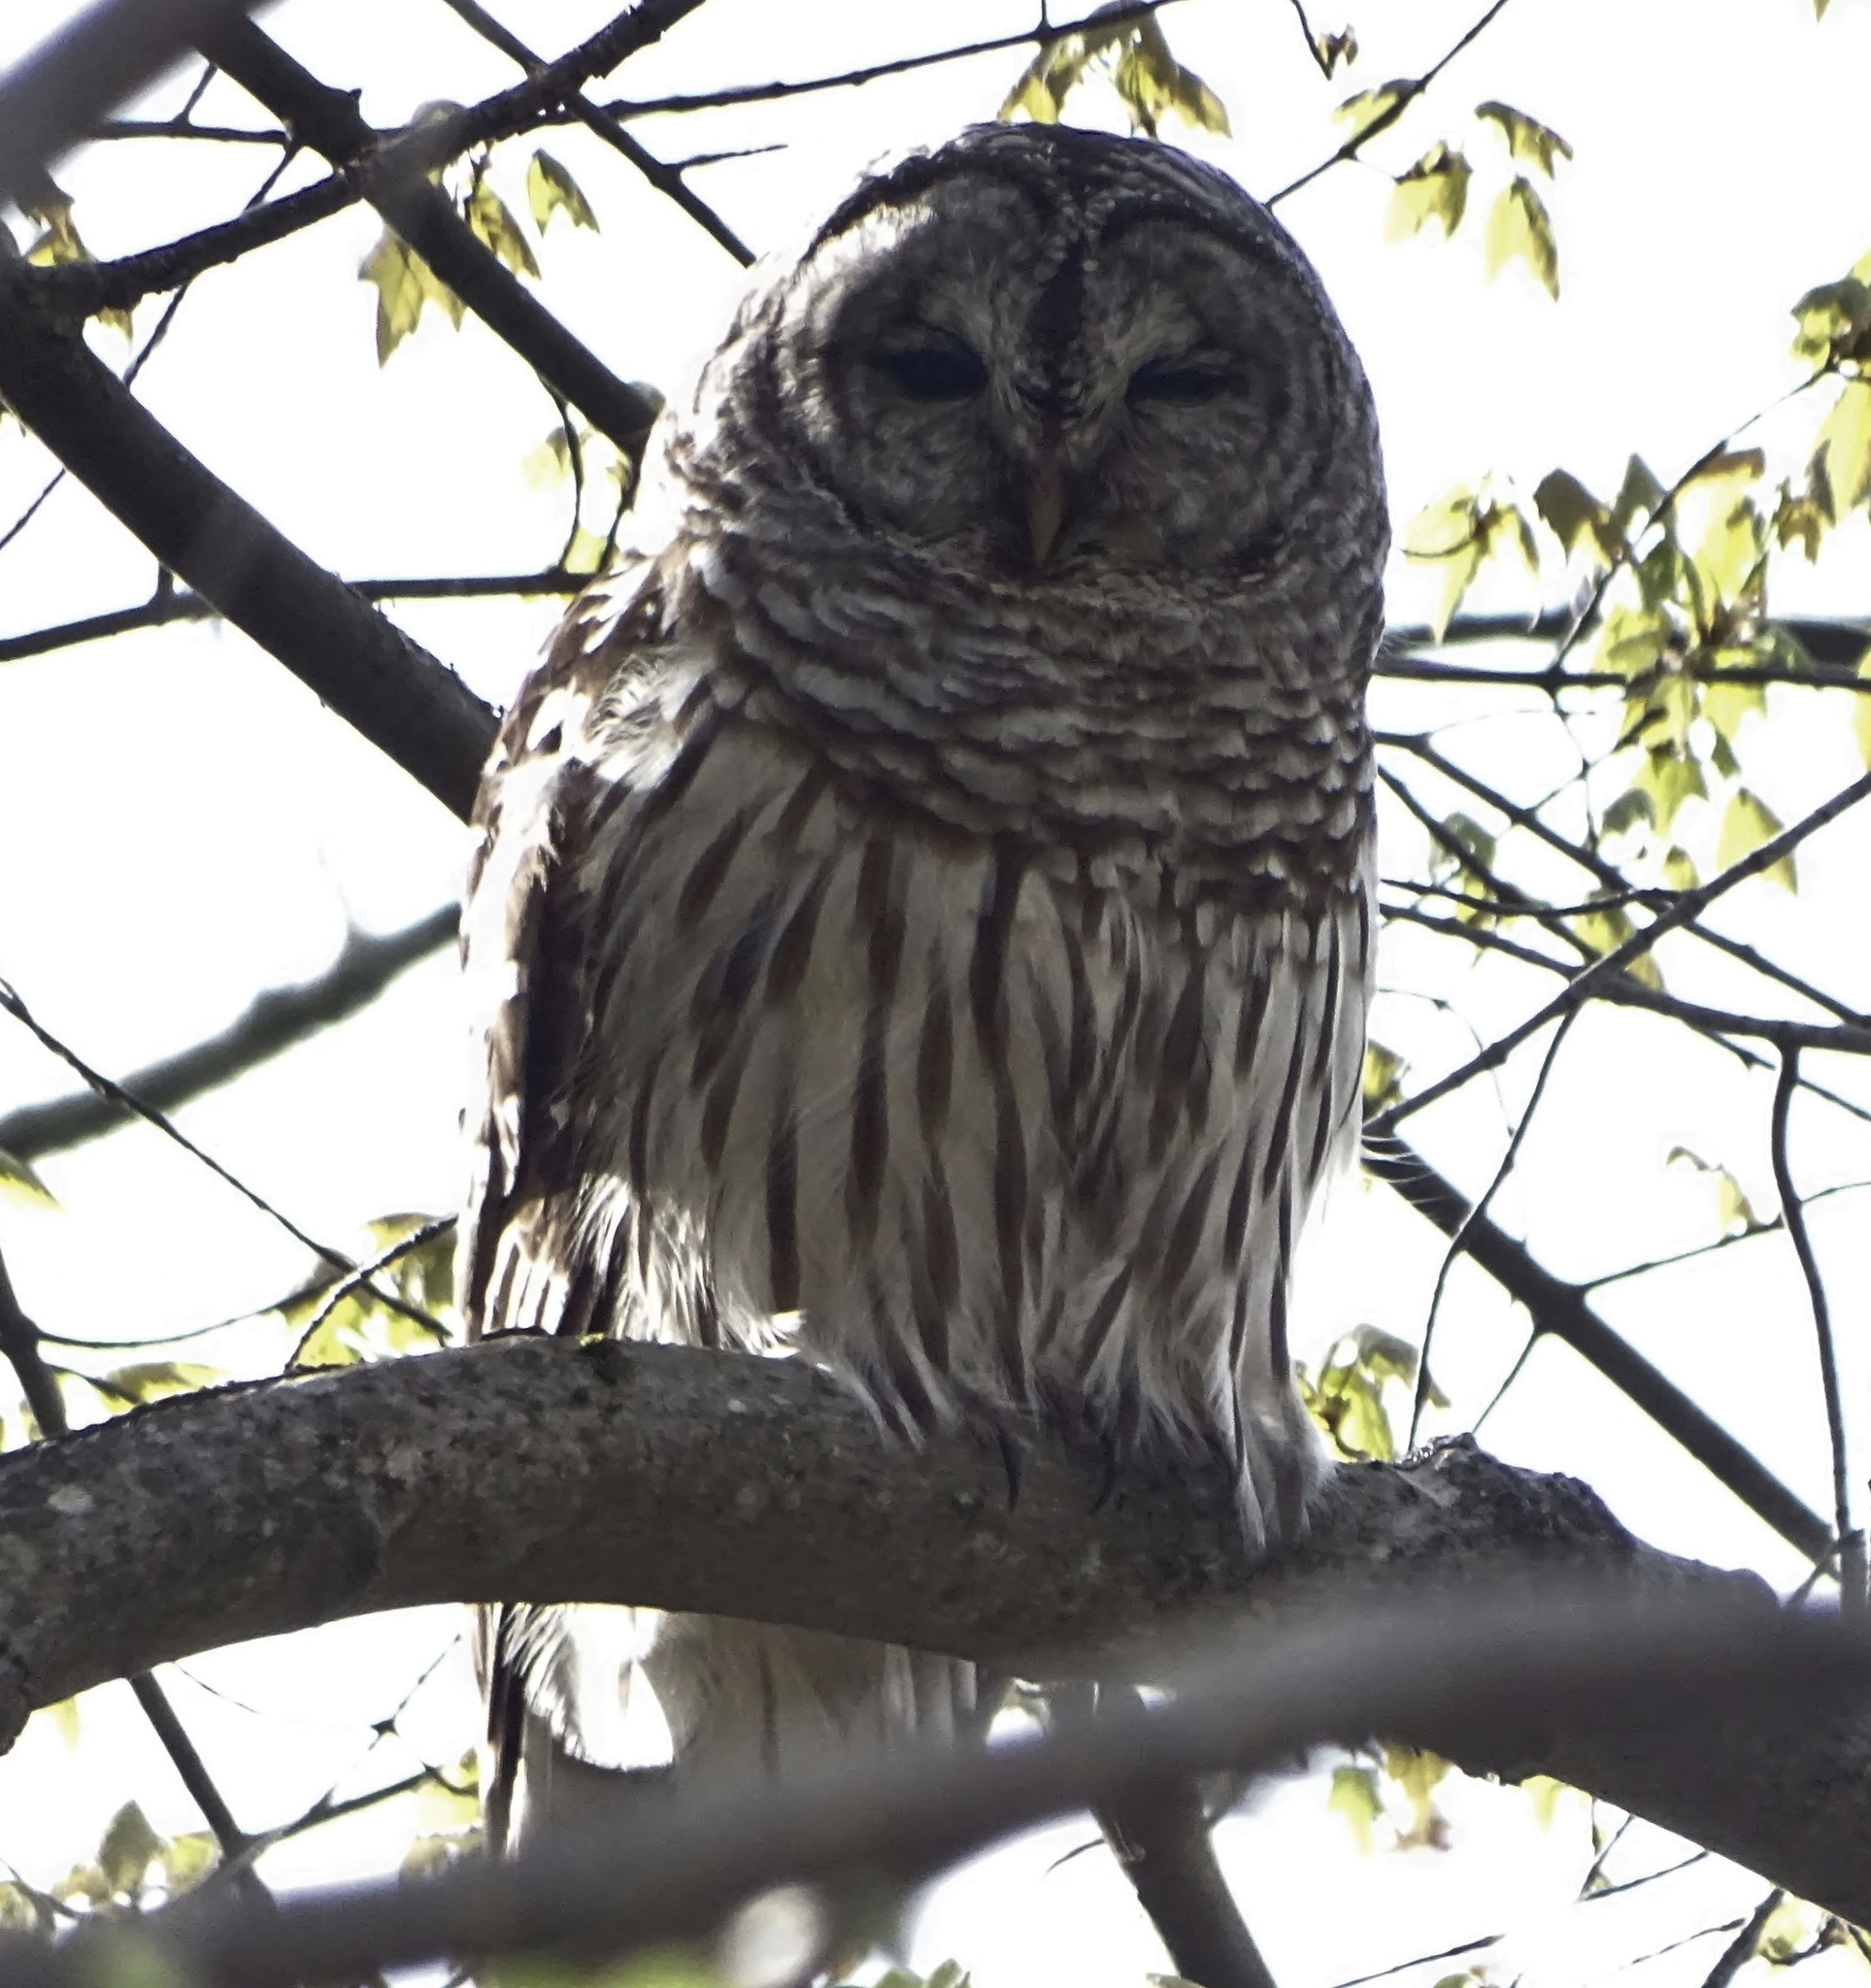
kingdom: Animalia
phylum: Chordata
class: Aves
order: Strigiformes
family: Strigidae
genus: Strix
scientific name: Strix varia
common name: Barred owl
